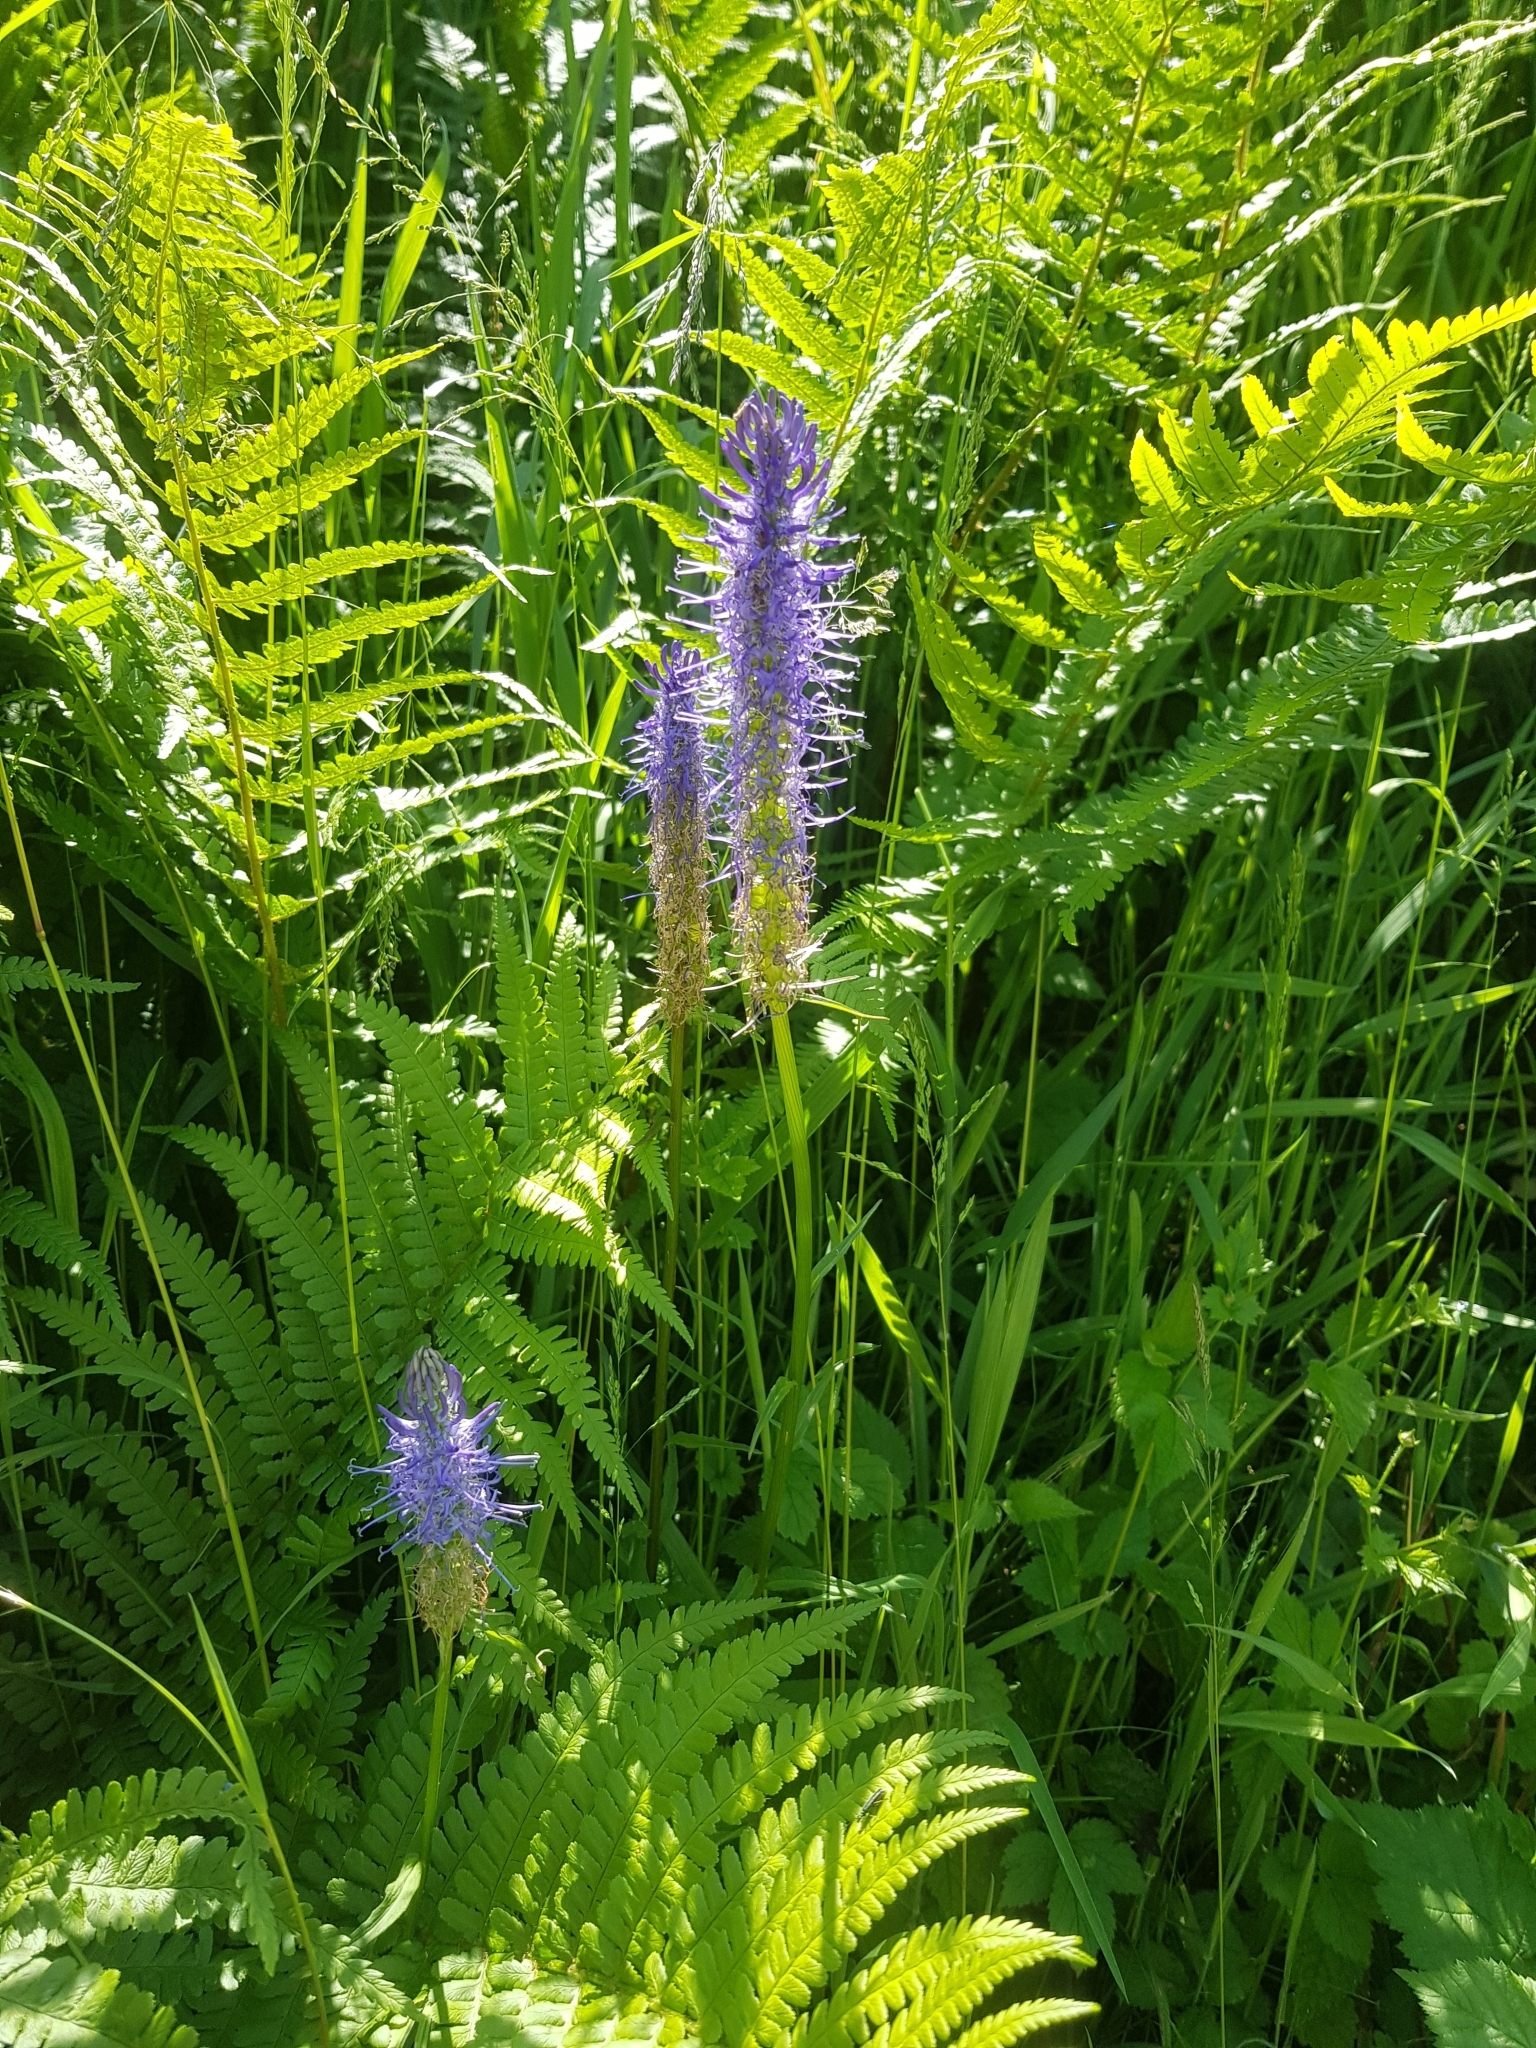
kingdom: Plantae
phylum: Tracheophyta
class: Magnoliopsida
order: Asterales
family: Campanulaceae
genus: Phyteuma
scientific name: Phyteuma spicatum
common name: Spiked rampion
